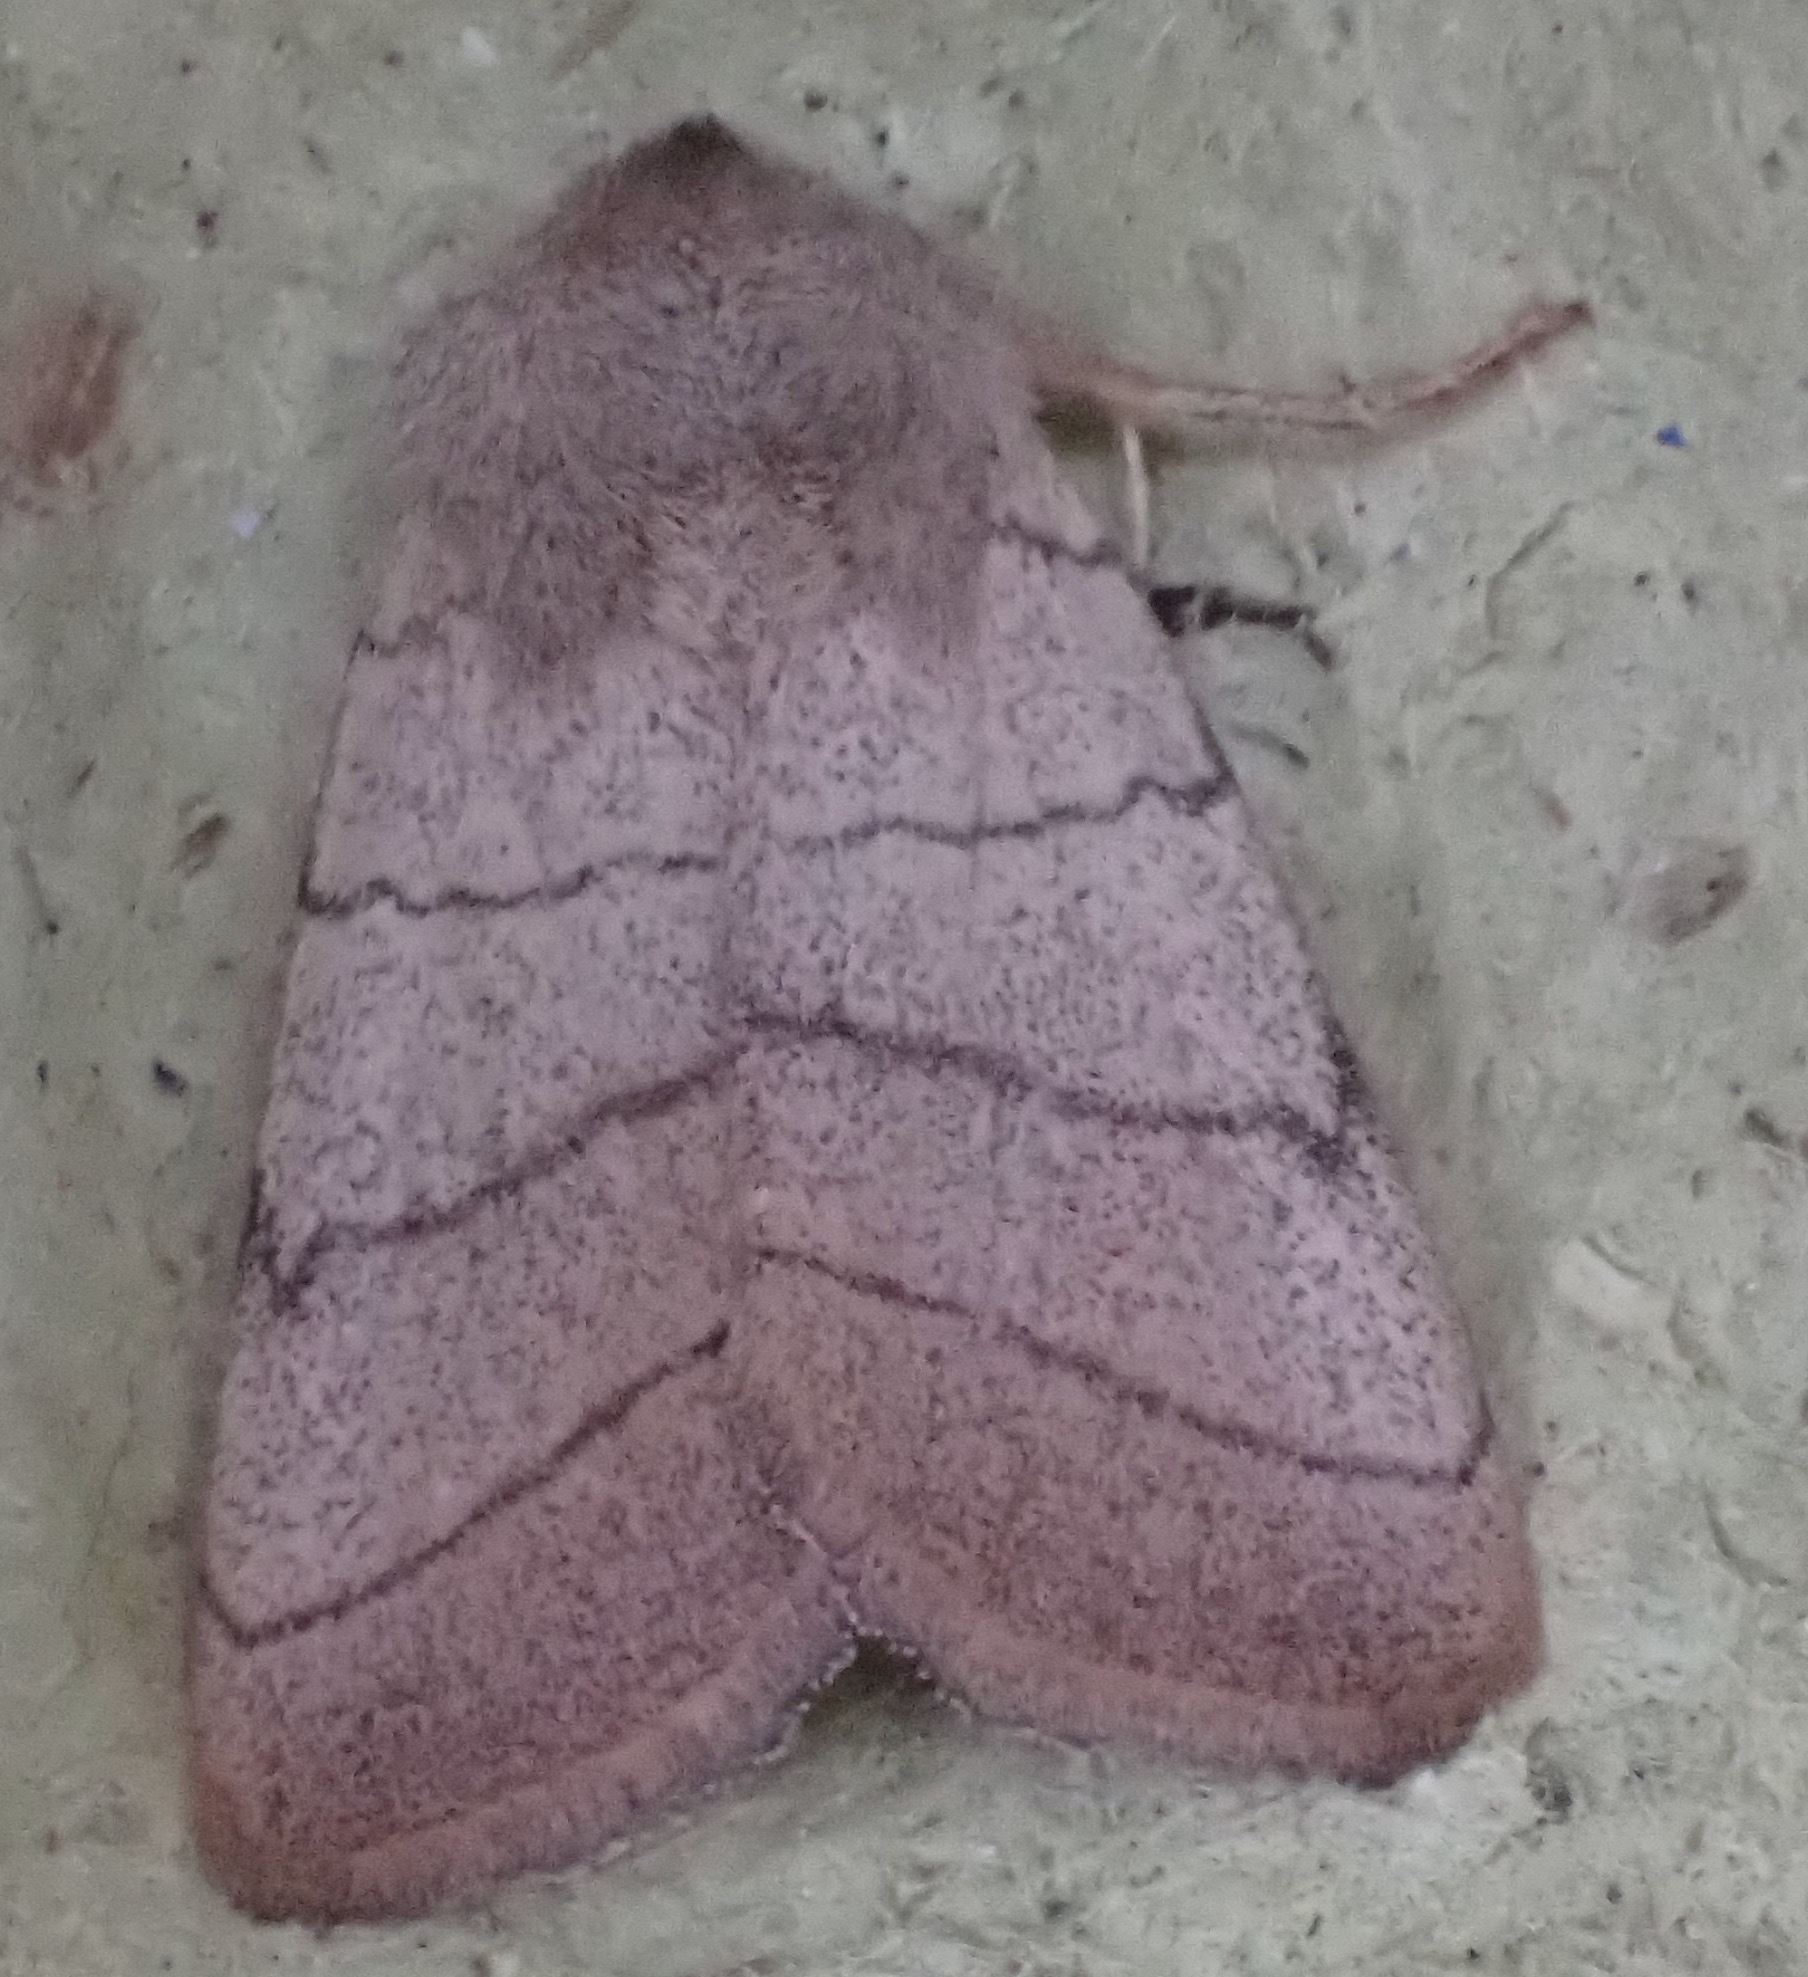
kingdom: Animalia
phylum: Arthropoda
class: Insecta
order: Lepidoptera
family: Noctuidae
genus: Charanyca
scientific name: Charanyca trigrammica
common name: Treble lines
